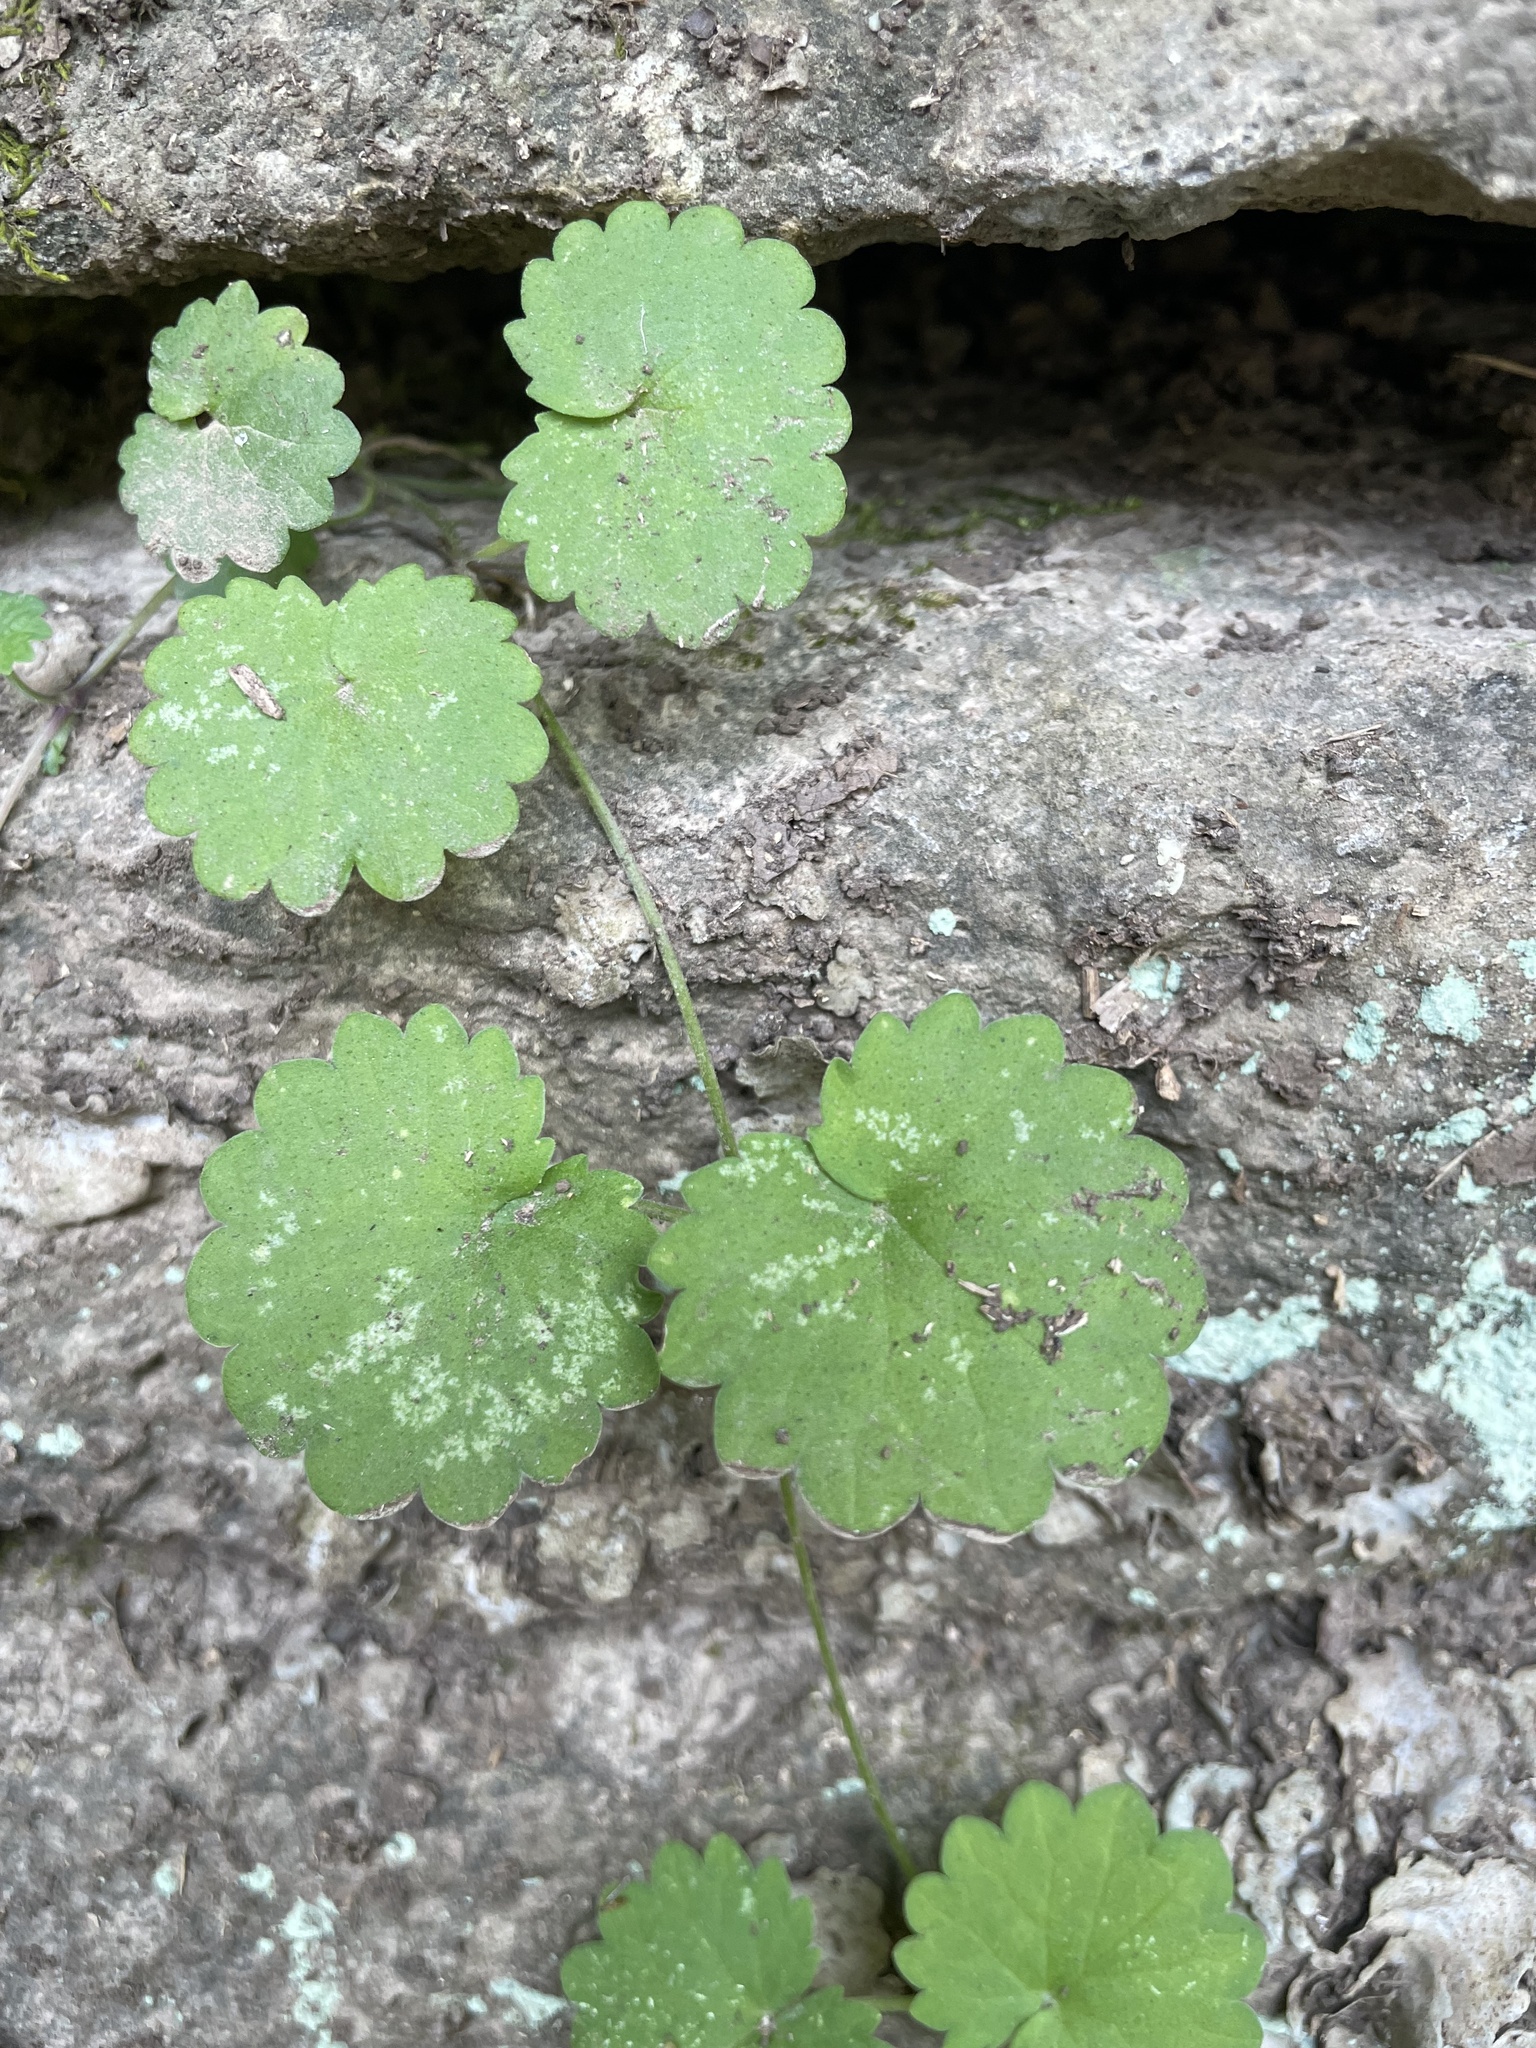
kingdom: Plantae
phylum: Tracheophyta
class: Magnoliopsida
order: Lamiales
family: Lamiaceae
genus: Glechoma
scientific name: Glechoma hederacea
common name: Ground ivy
